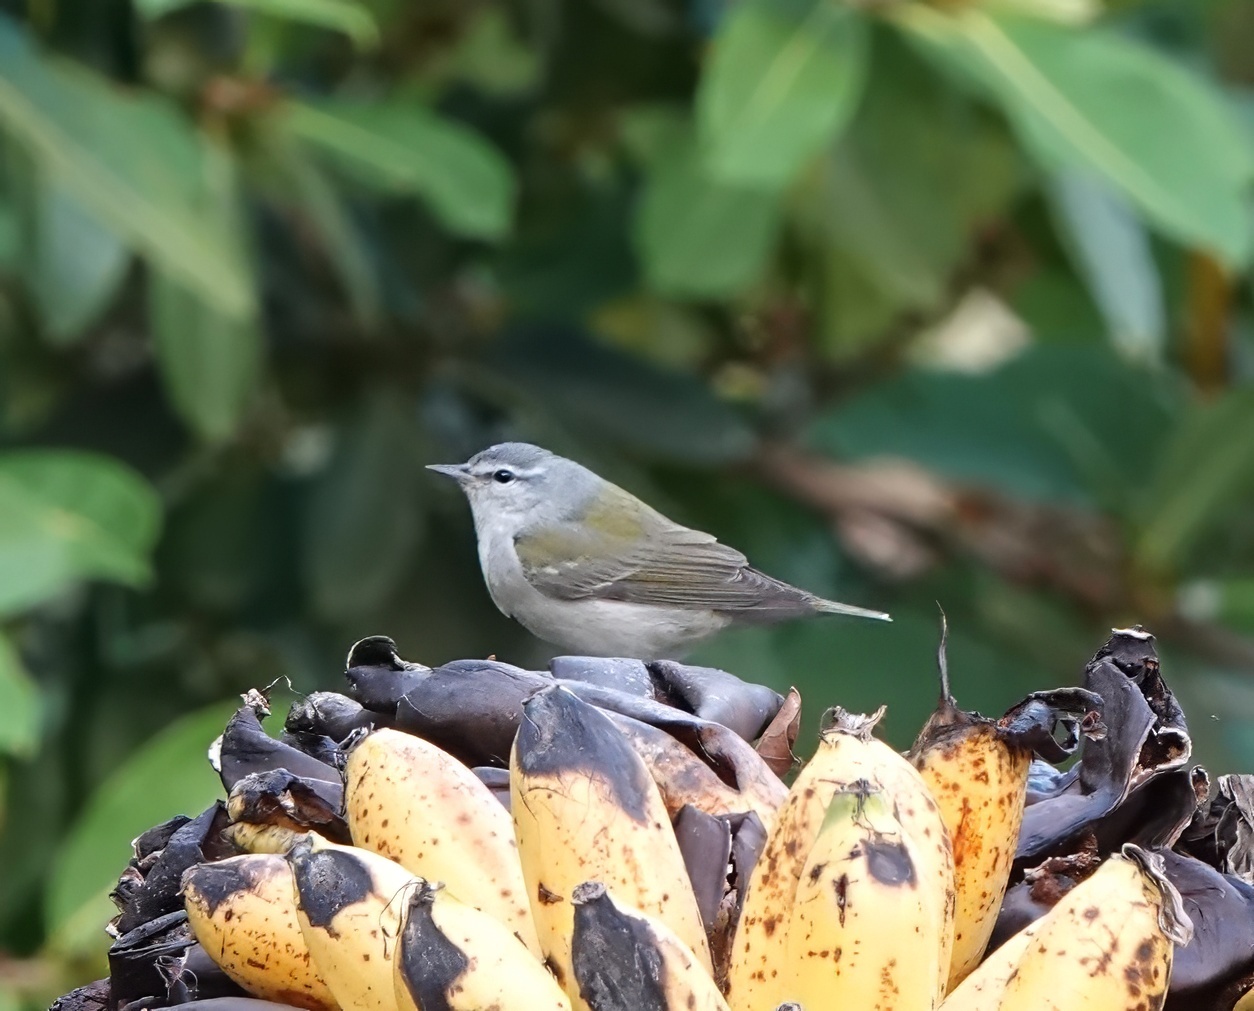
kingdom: Animalia
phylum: Chordata
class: Aves
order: Passeriformes
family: Parulidae
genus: Leiothlypis
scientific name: Leiothlypis peregrina
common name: Tennessee warbler
